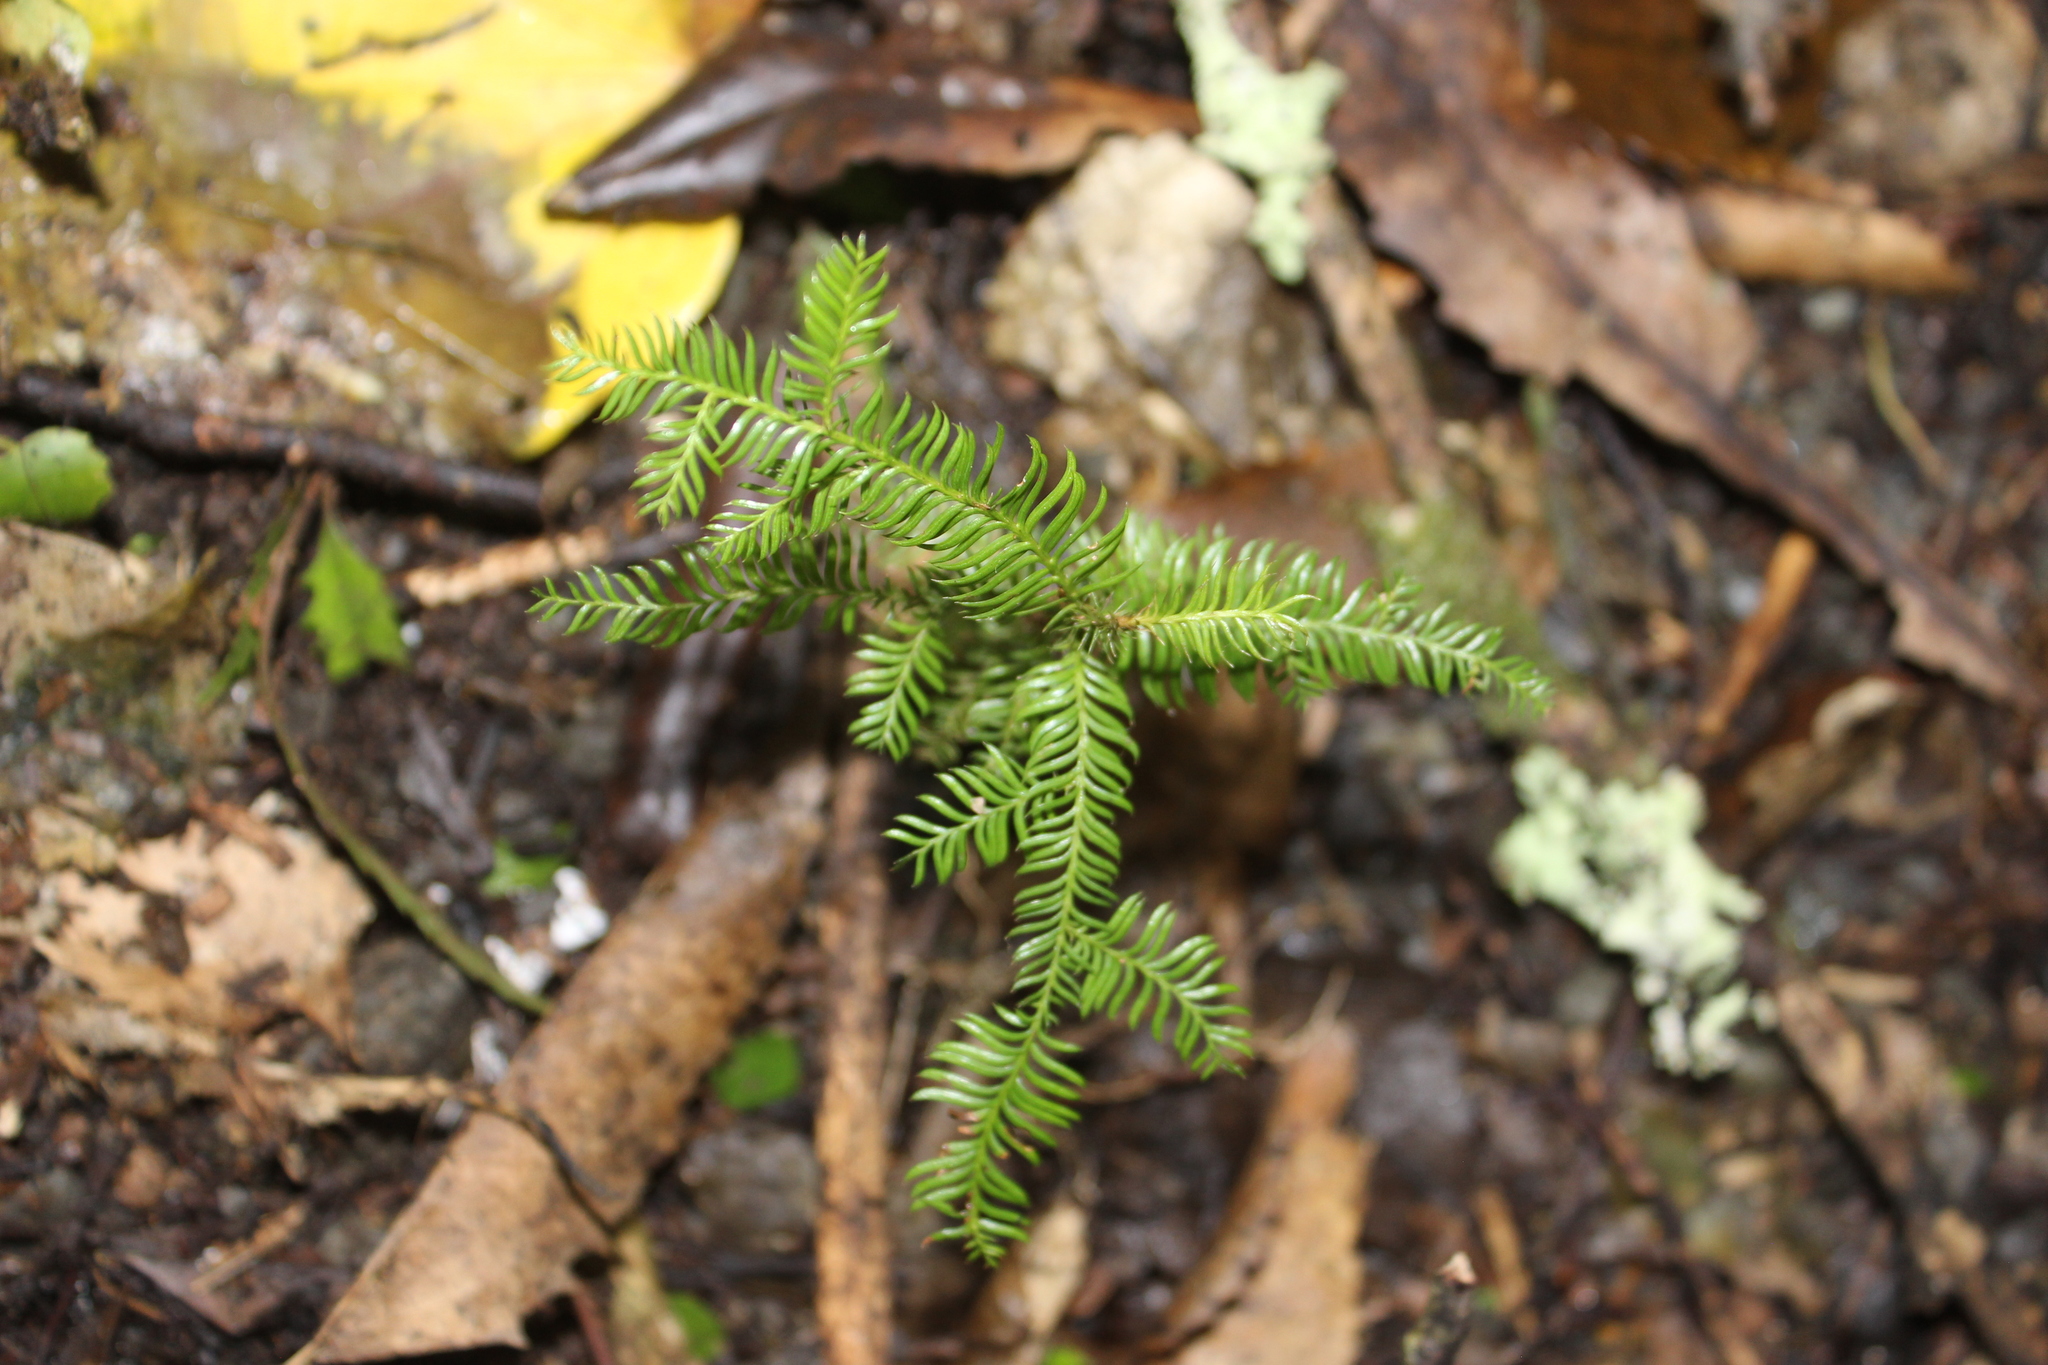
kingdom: Plantae
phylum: Tracheophyta
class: Pinopsida
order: Pinales
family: Podocarpaceae
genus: Dacrycarpus
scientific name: Dacrycarpus dacrydioides
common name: White pine
